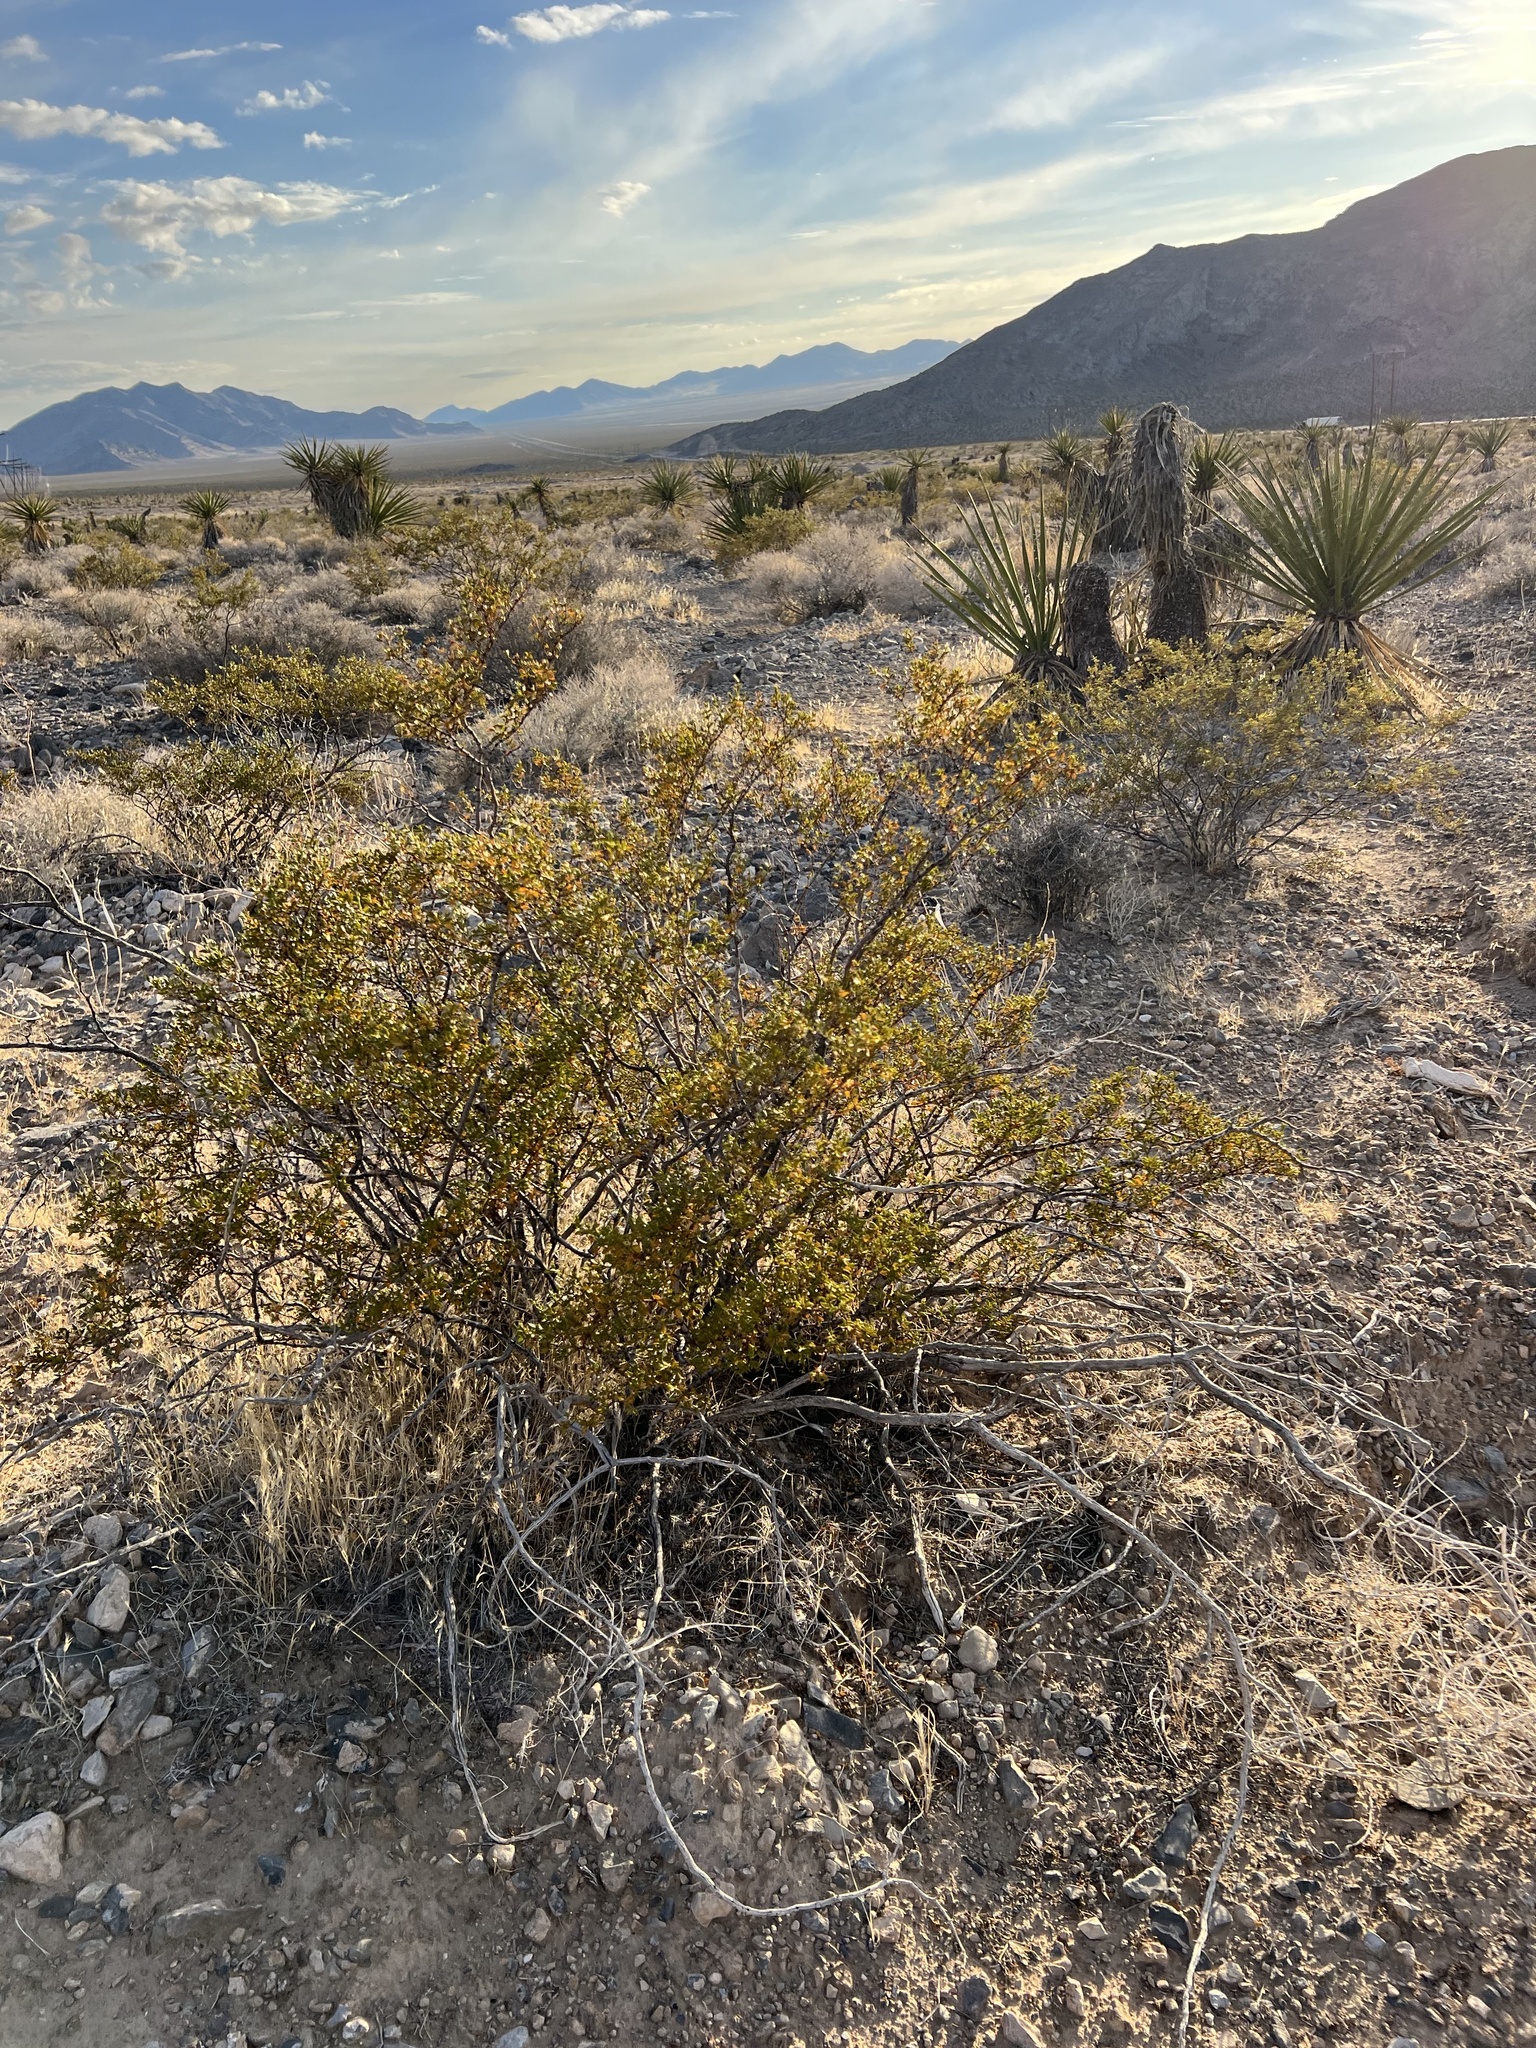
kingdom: Plantae
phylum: Tracheophyta
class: Magnoliopsida
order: Zygophyllales
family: Zygophyllaceae
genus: Larrea
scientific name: Larrea tridentata
